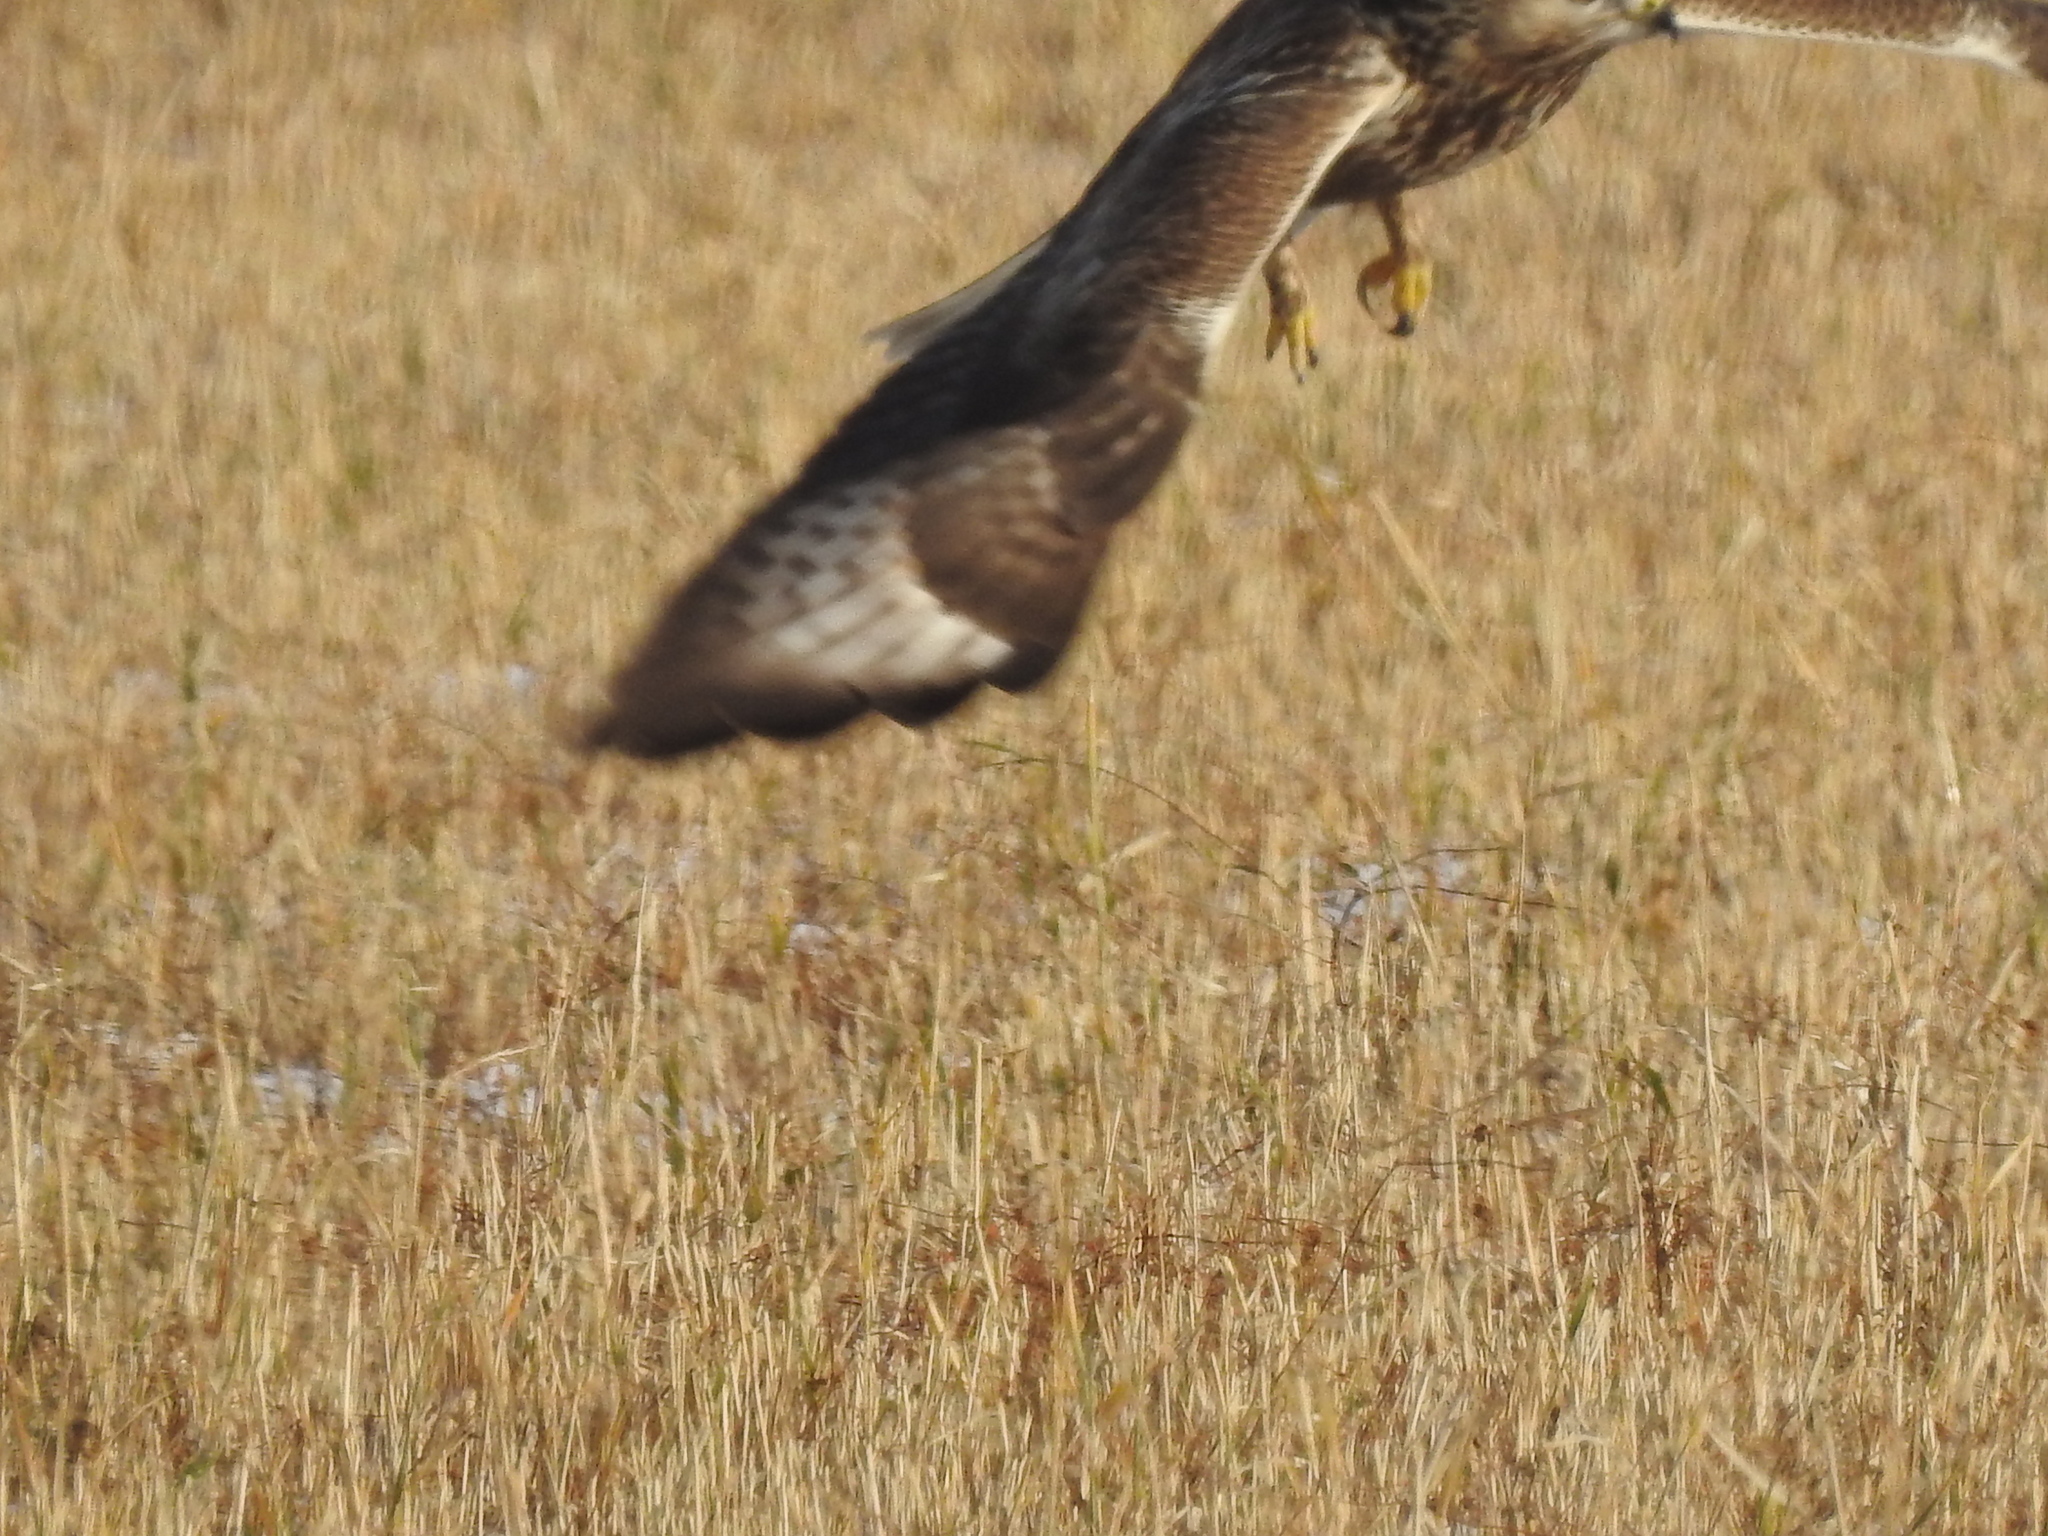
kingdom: Animalia
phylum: Chordata
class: Aves
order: Accipitriformes
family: Accipitridae
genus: Buteo
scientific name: Buteo lagopus
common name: Rough-legged buzzard
